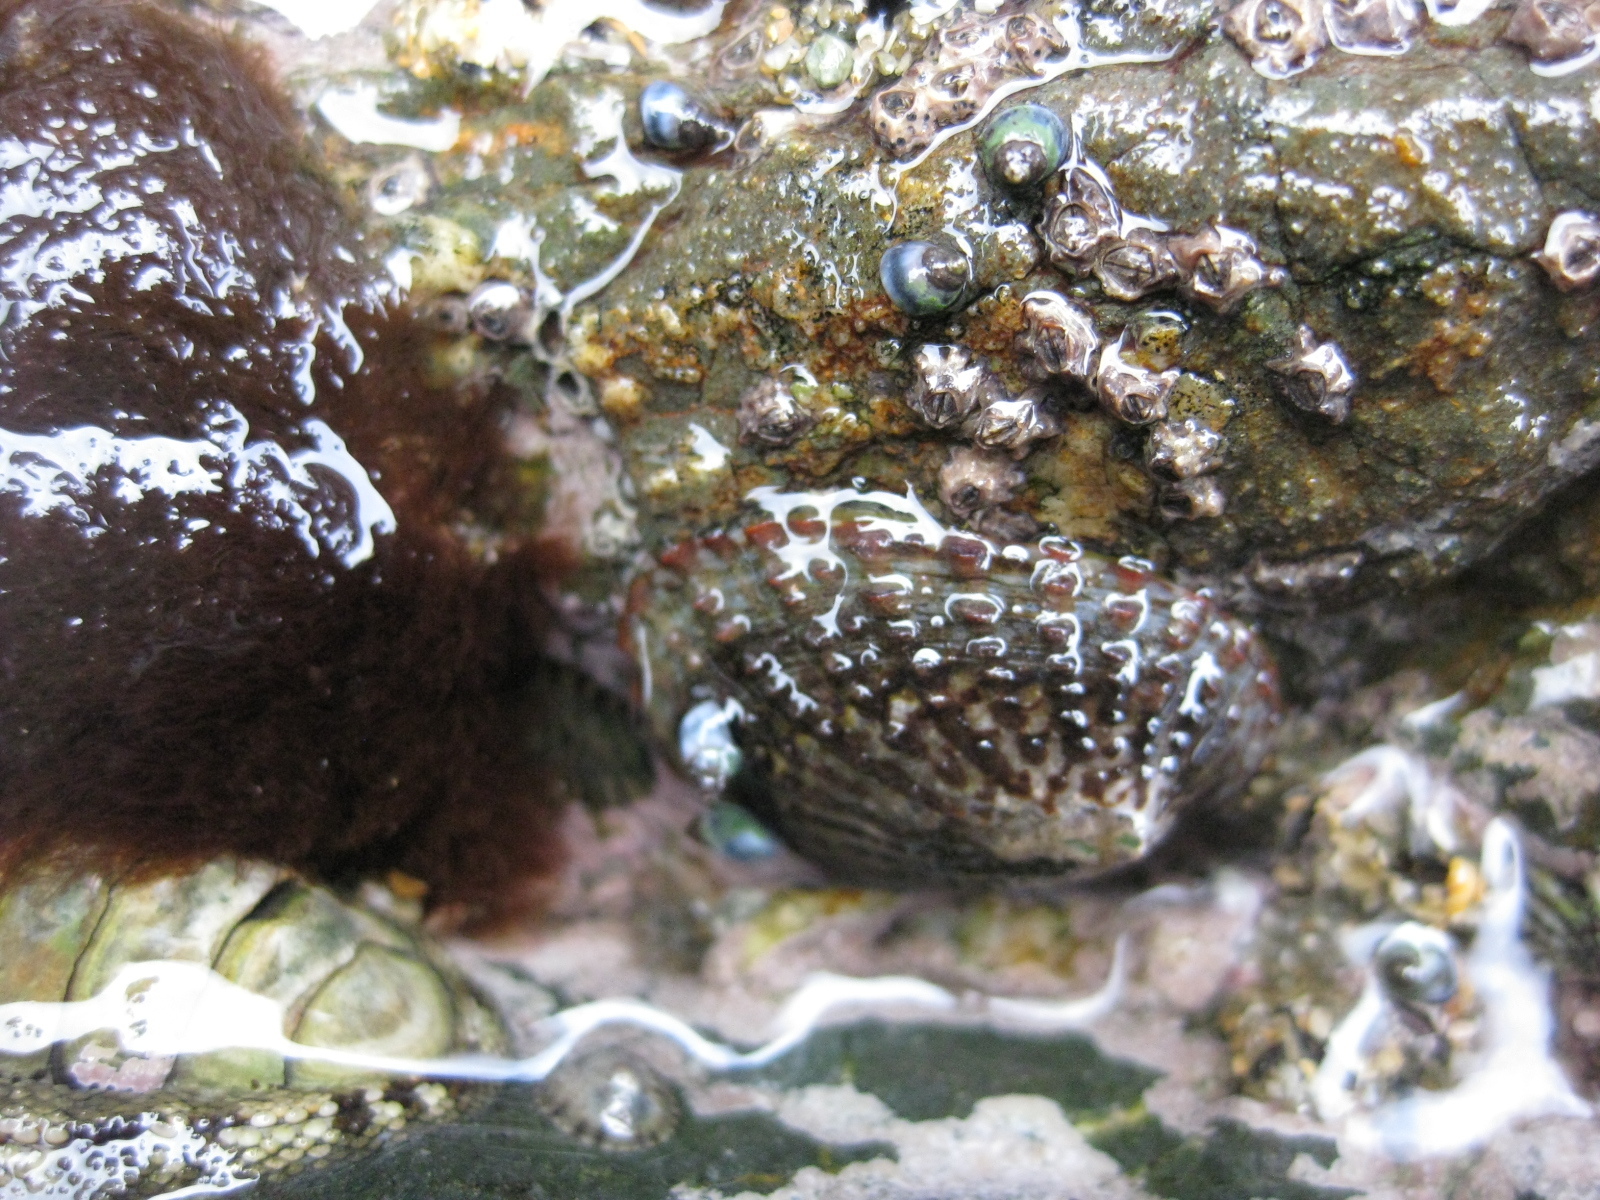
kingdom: Animalia
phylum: Mollusca
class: Gastropoda
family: Nacellidae
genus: Cellana
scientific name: Cellana denticulata
